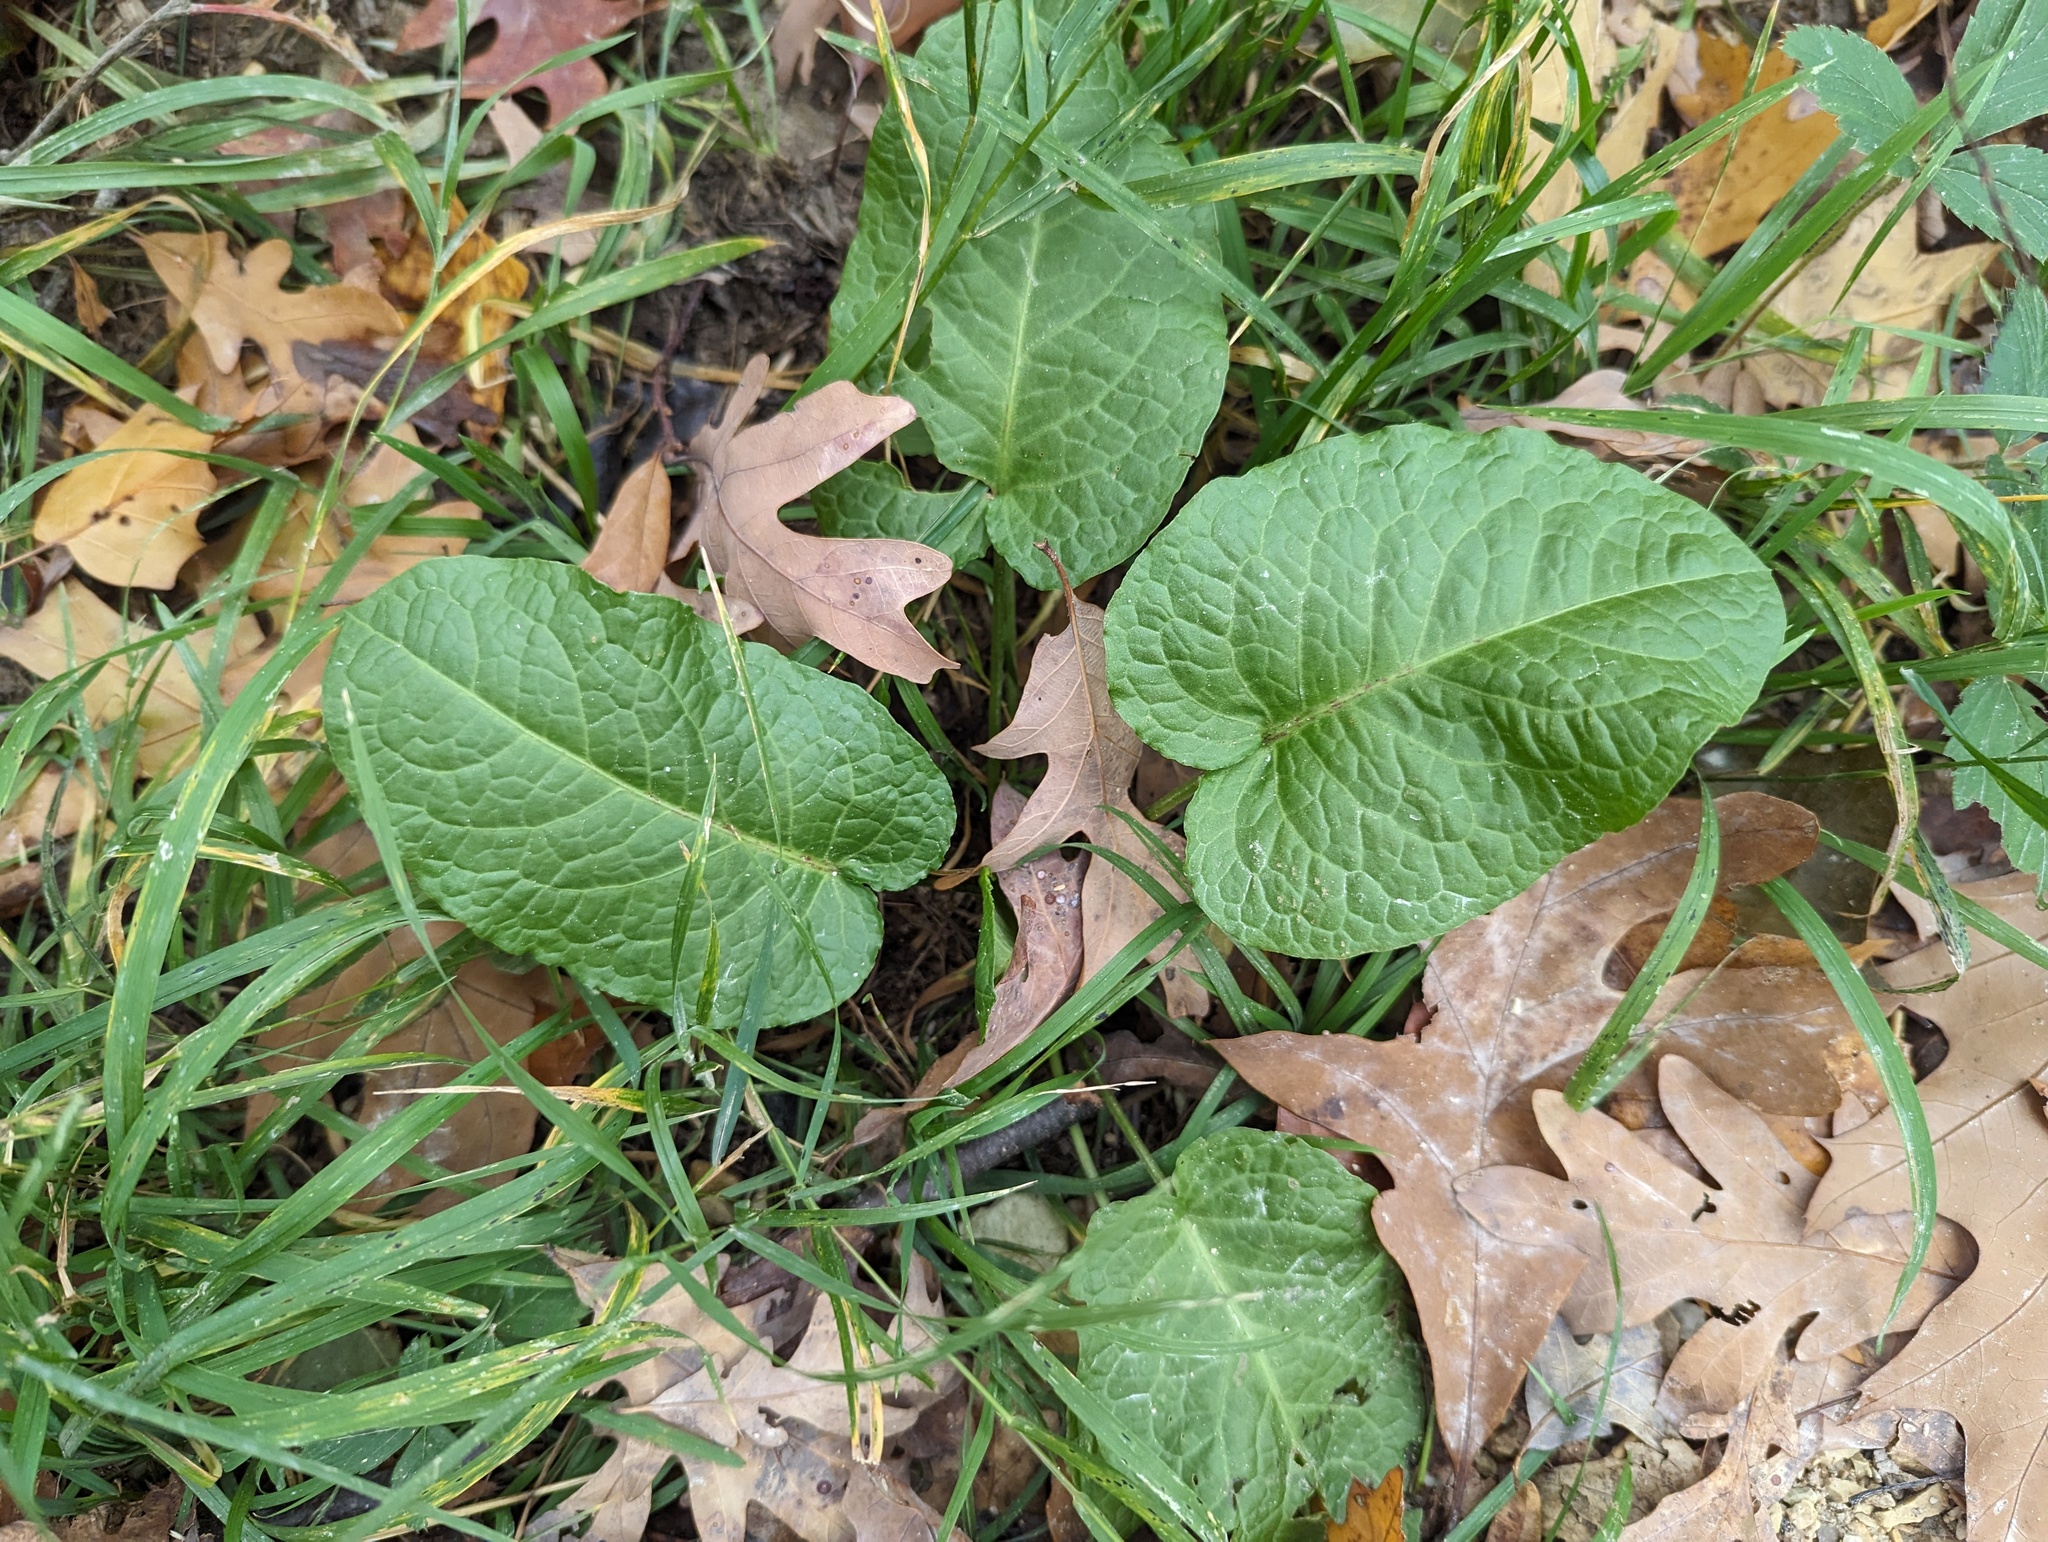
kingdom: Plantae
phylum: Tracheophyta
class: Magnoliopsida
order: Caryophyllales
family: Polygonaceae
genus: Rumex
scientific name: Rumex obtusifolius
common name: Bitter dock
